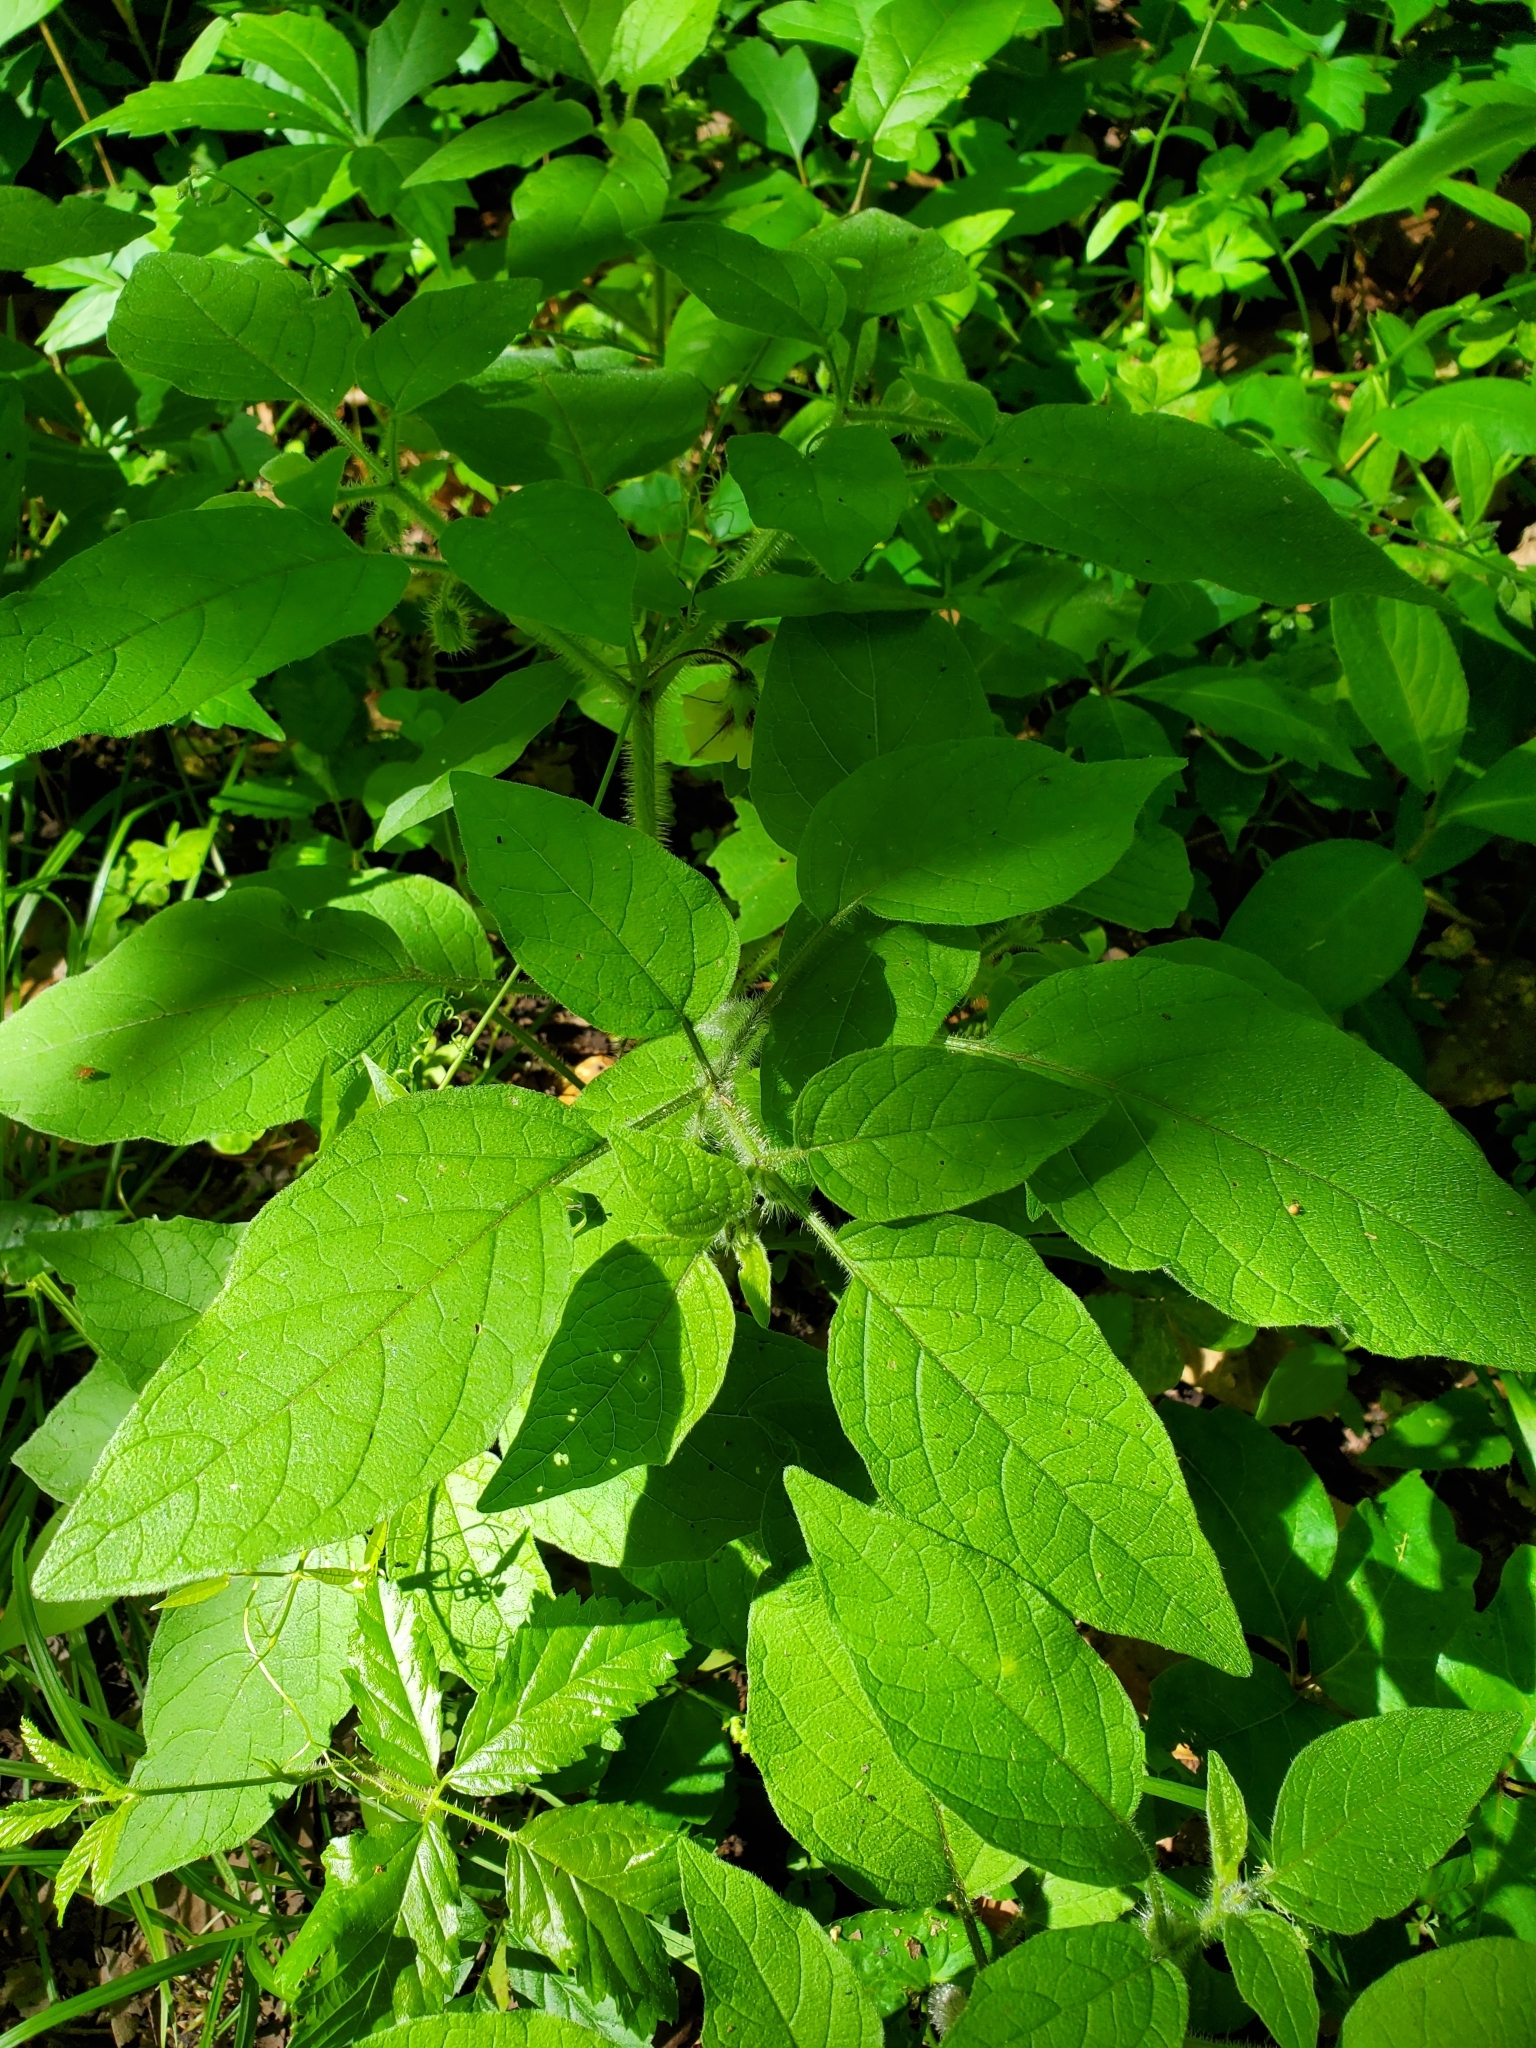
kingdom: Plantae
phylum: Tracheophyta
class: Magnoliopsida
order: Solanales
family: Solanaceae
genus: Physalis
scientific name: Physalis heterophylla
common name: Clammy ground-cherry
